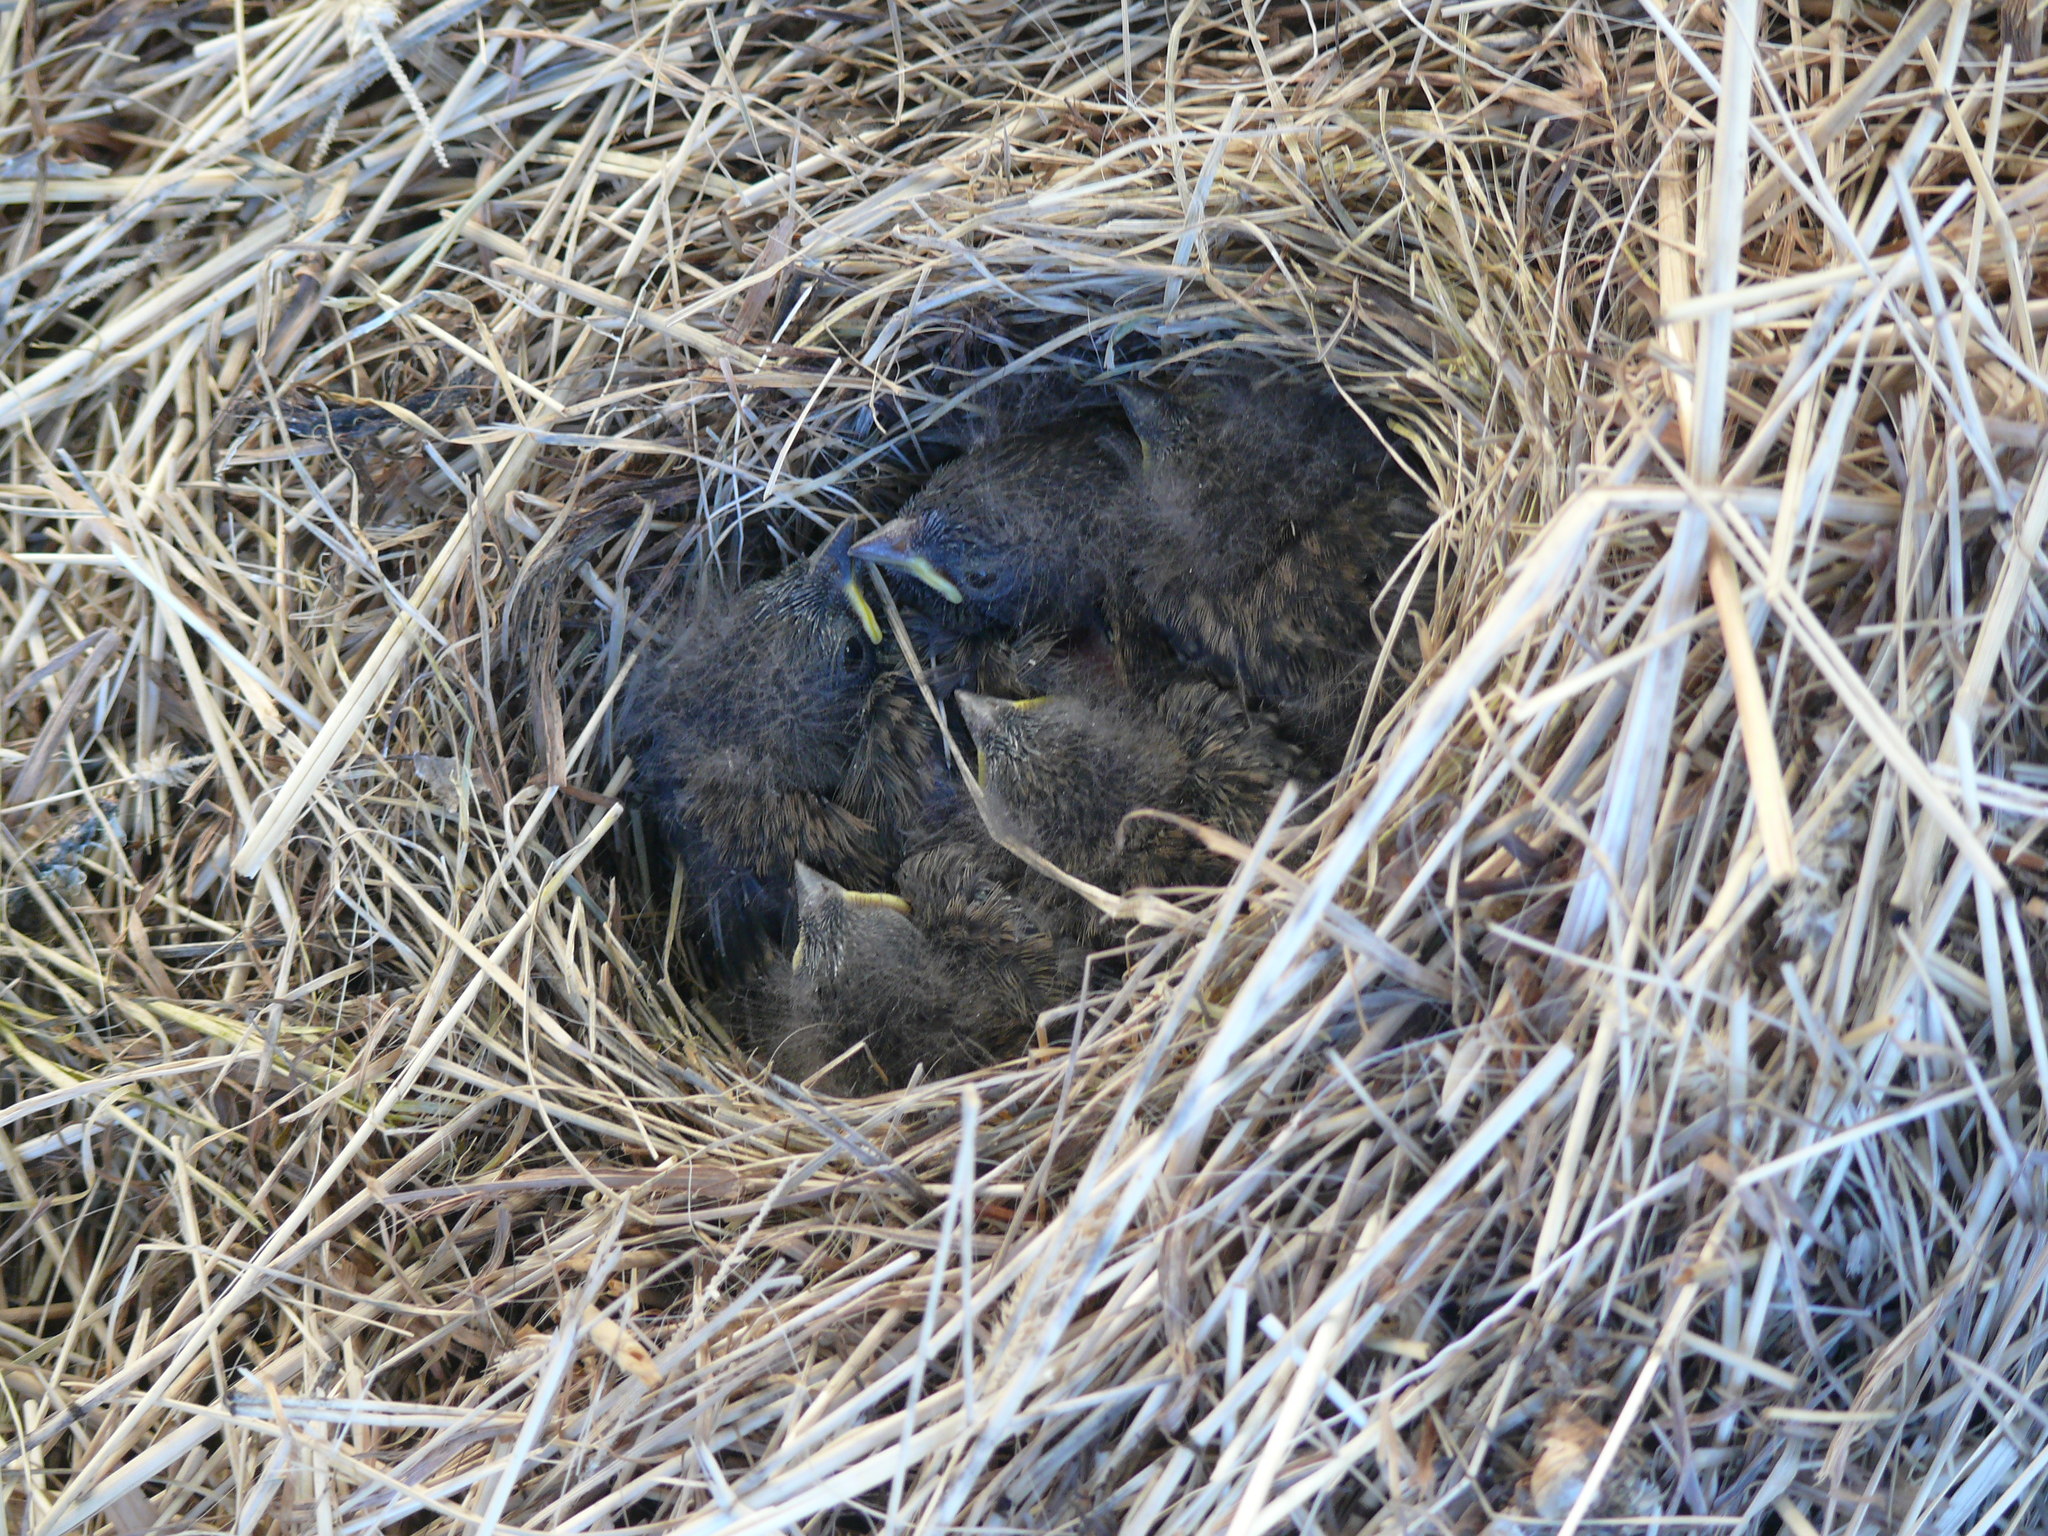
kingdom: Animalia
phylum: Chordata
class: Aves
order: Passeriformes
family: Passerellidae
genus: Junco
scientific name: Junco hyemalis
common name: Dark-eyed junco
